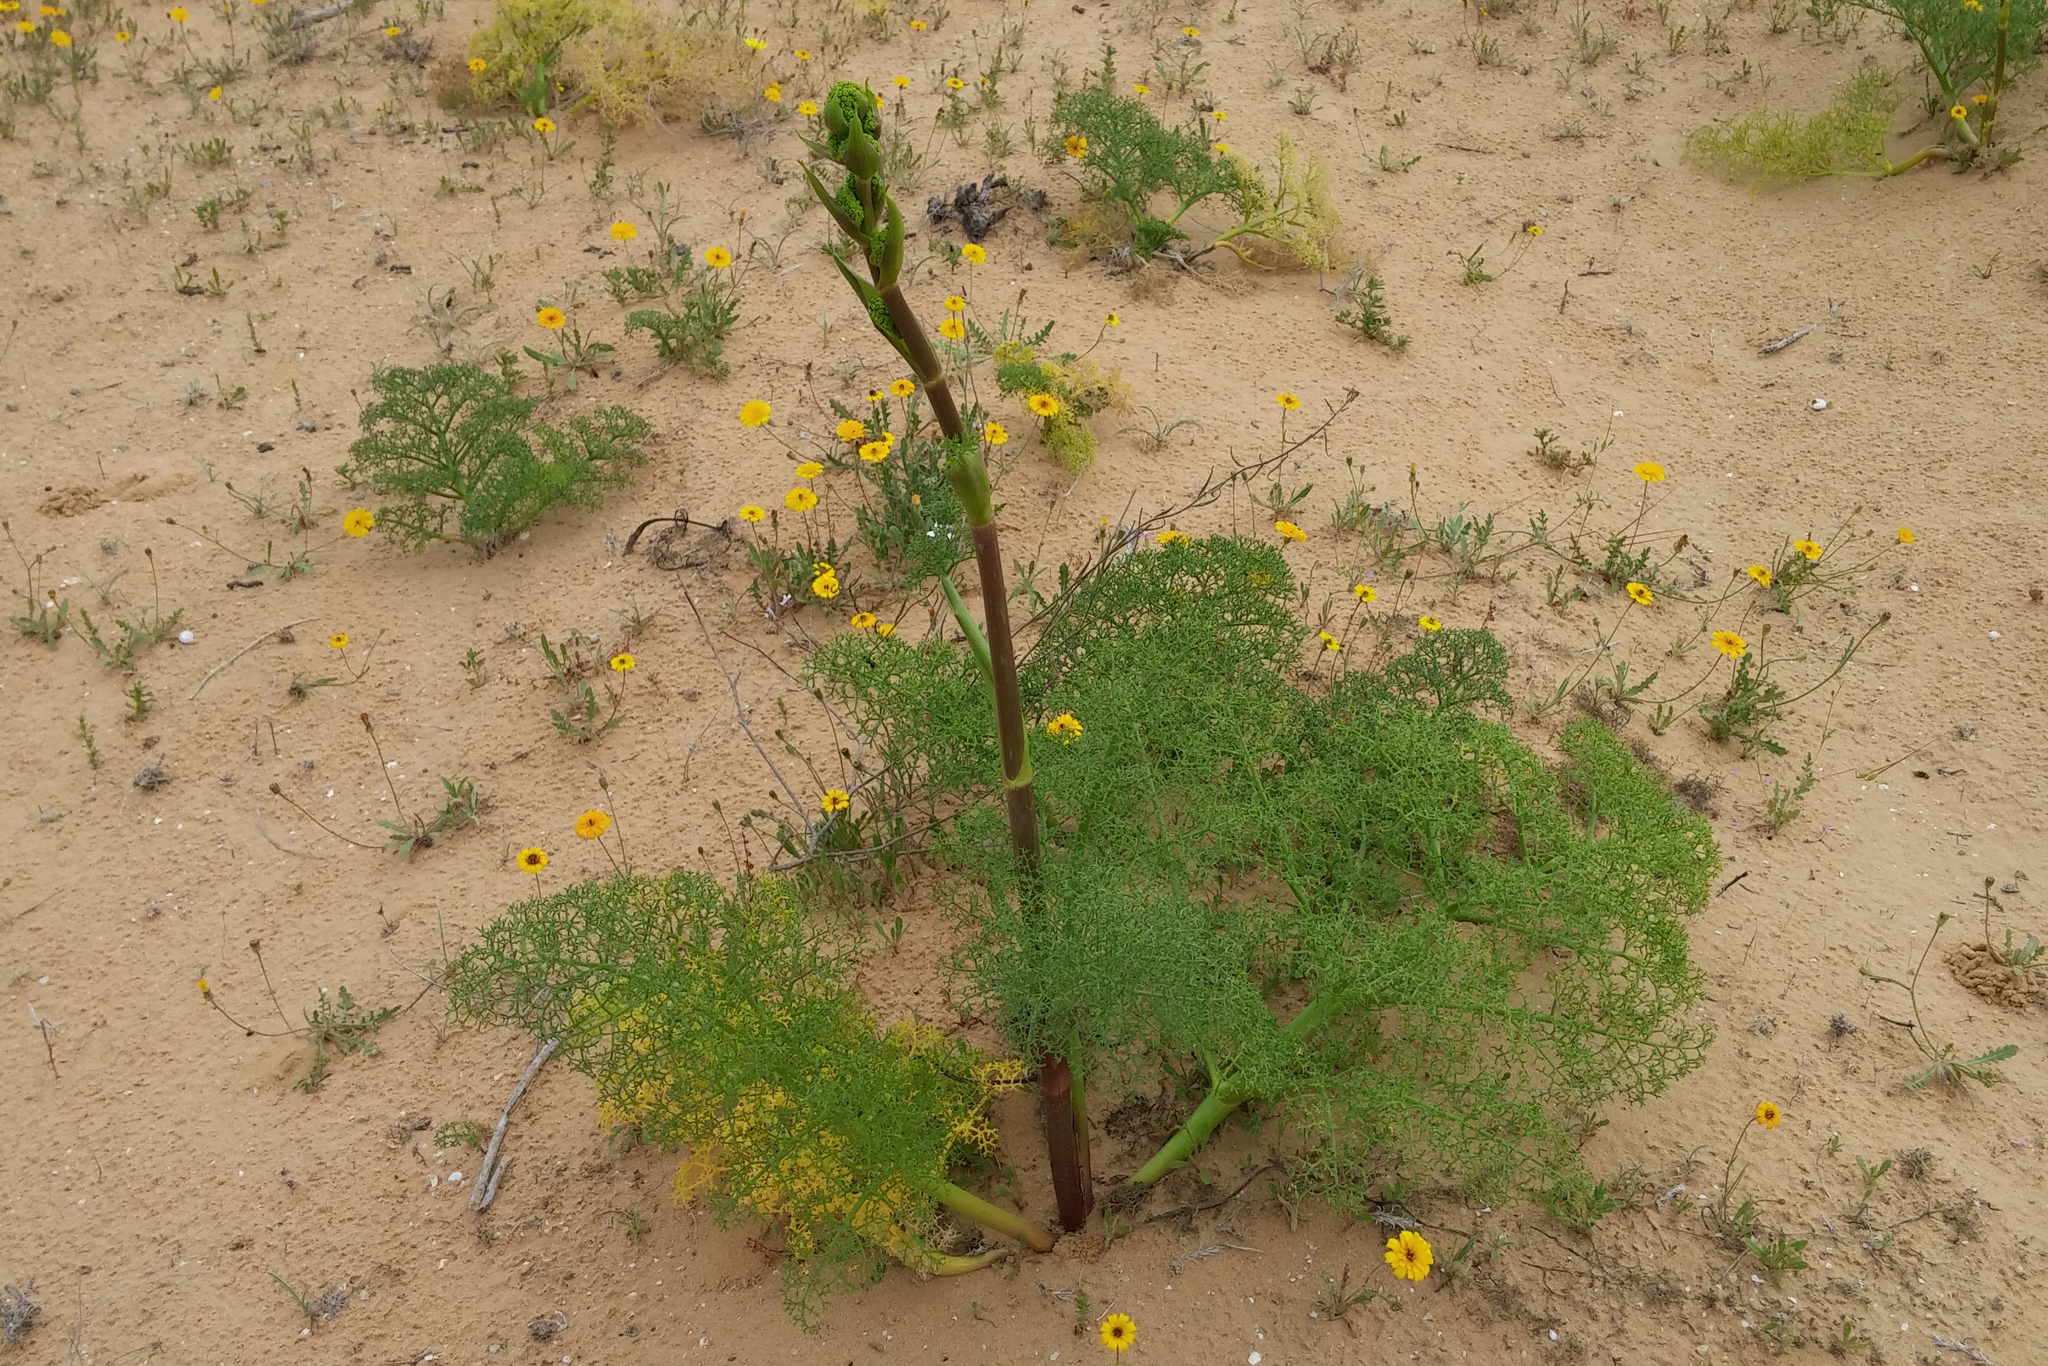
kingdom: Plantae
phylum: Tracheophyta
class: Magnoliopsida
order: Apiales
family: Apiaceae
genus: Ferula
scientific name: Ferula sinaica
